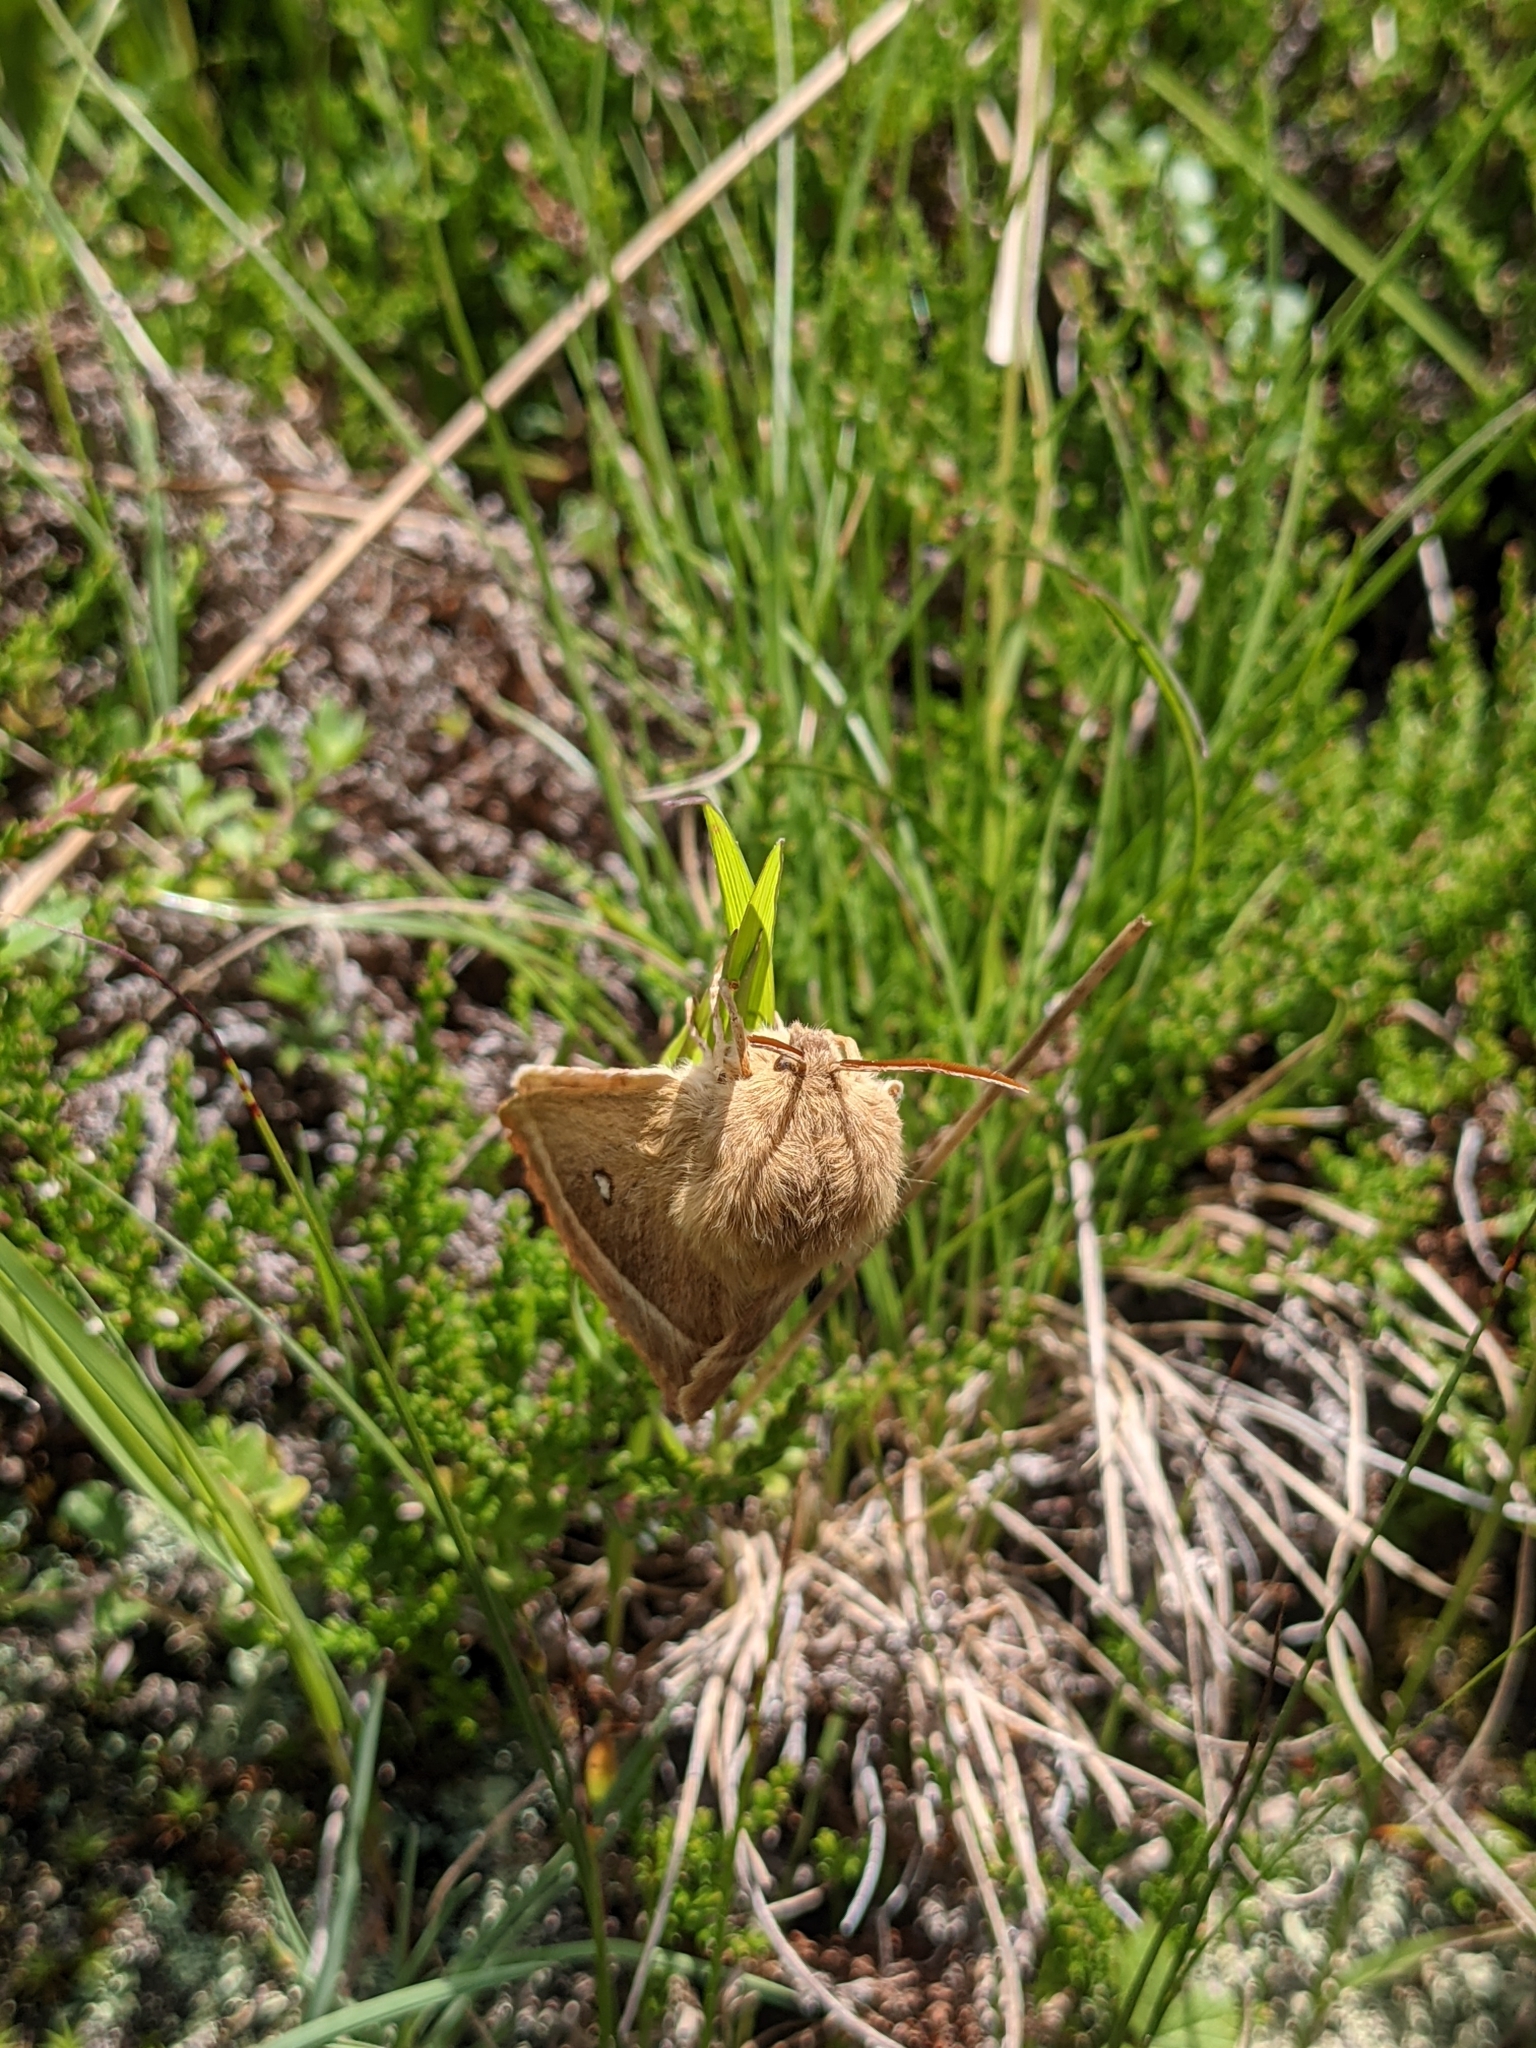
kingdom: Animalia
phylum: Arthropoda
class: Insecta
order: Lepidoptera
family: Lasiocampidae
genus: Lasiocampa
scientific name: Lasiocampa quercus
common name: Oak eggar
